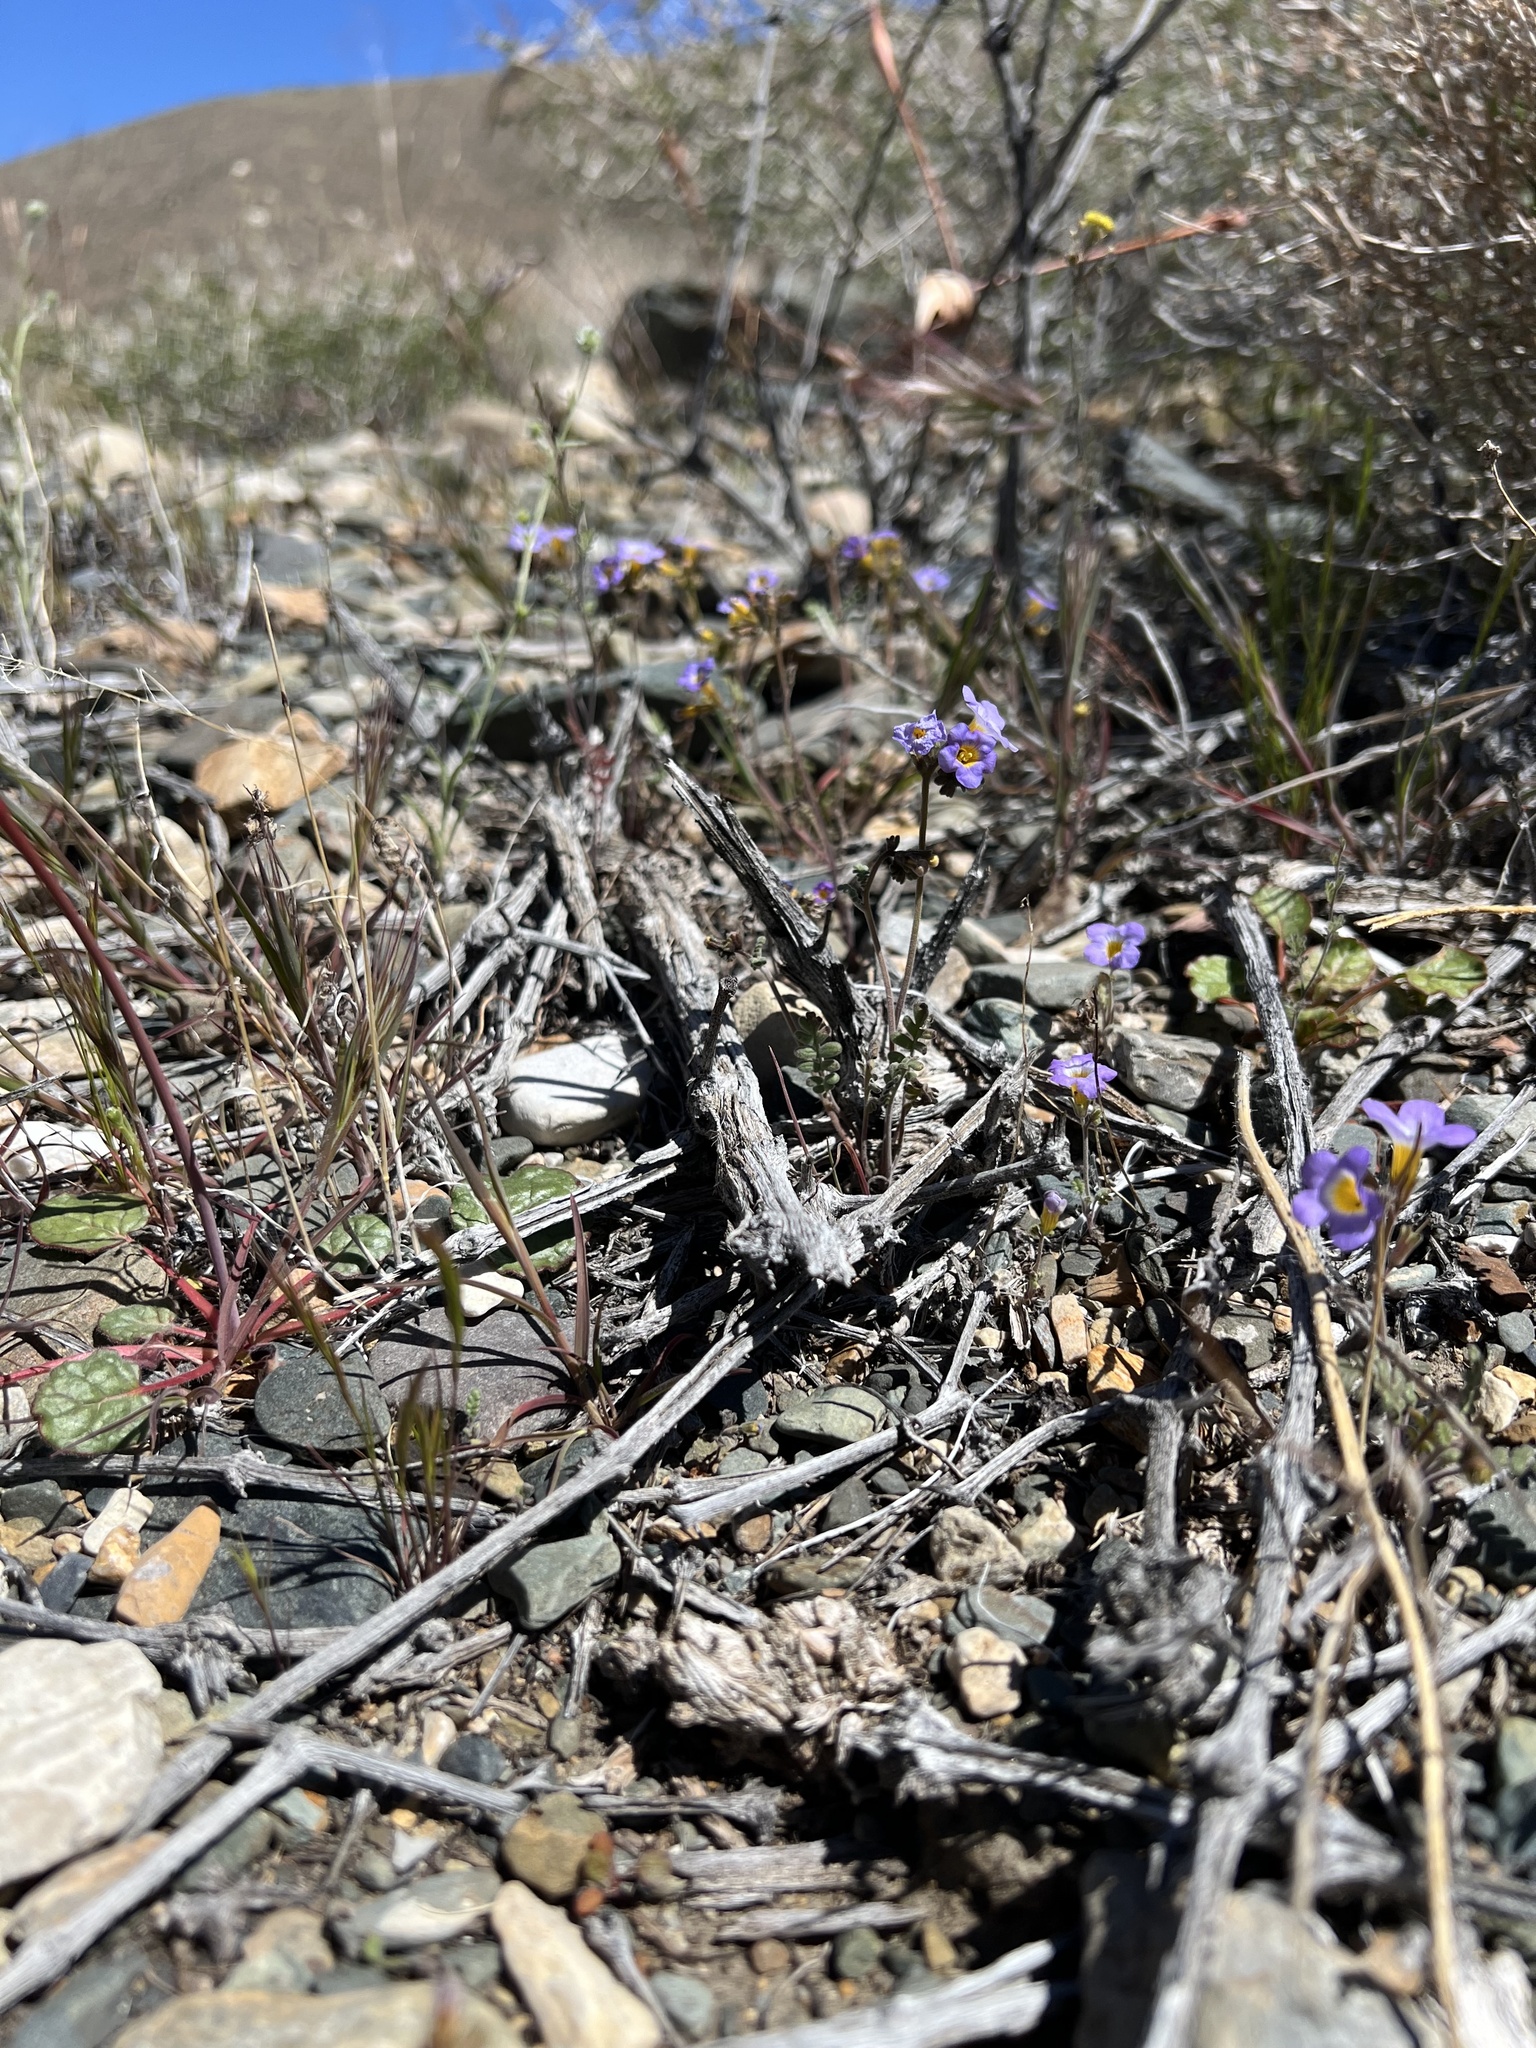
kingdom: Plantae
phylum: Tracheophyta
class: Magnoliopsida
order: Boraginales
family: Hydrophyllaceae
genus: Phacelia
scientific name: Phacelia fremontii
